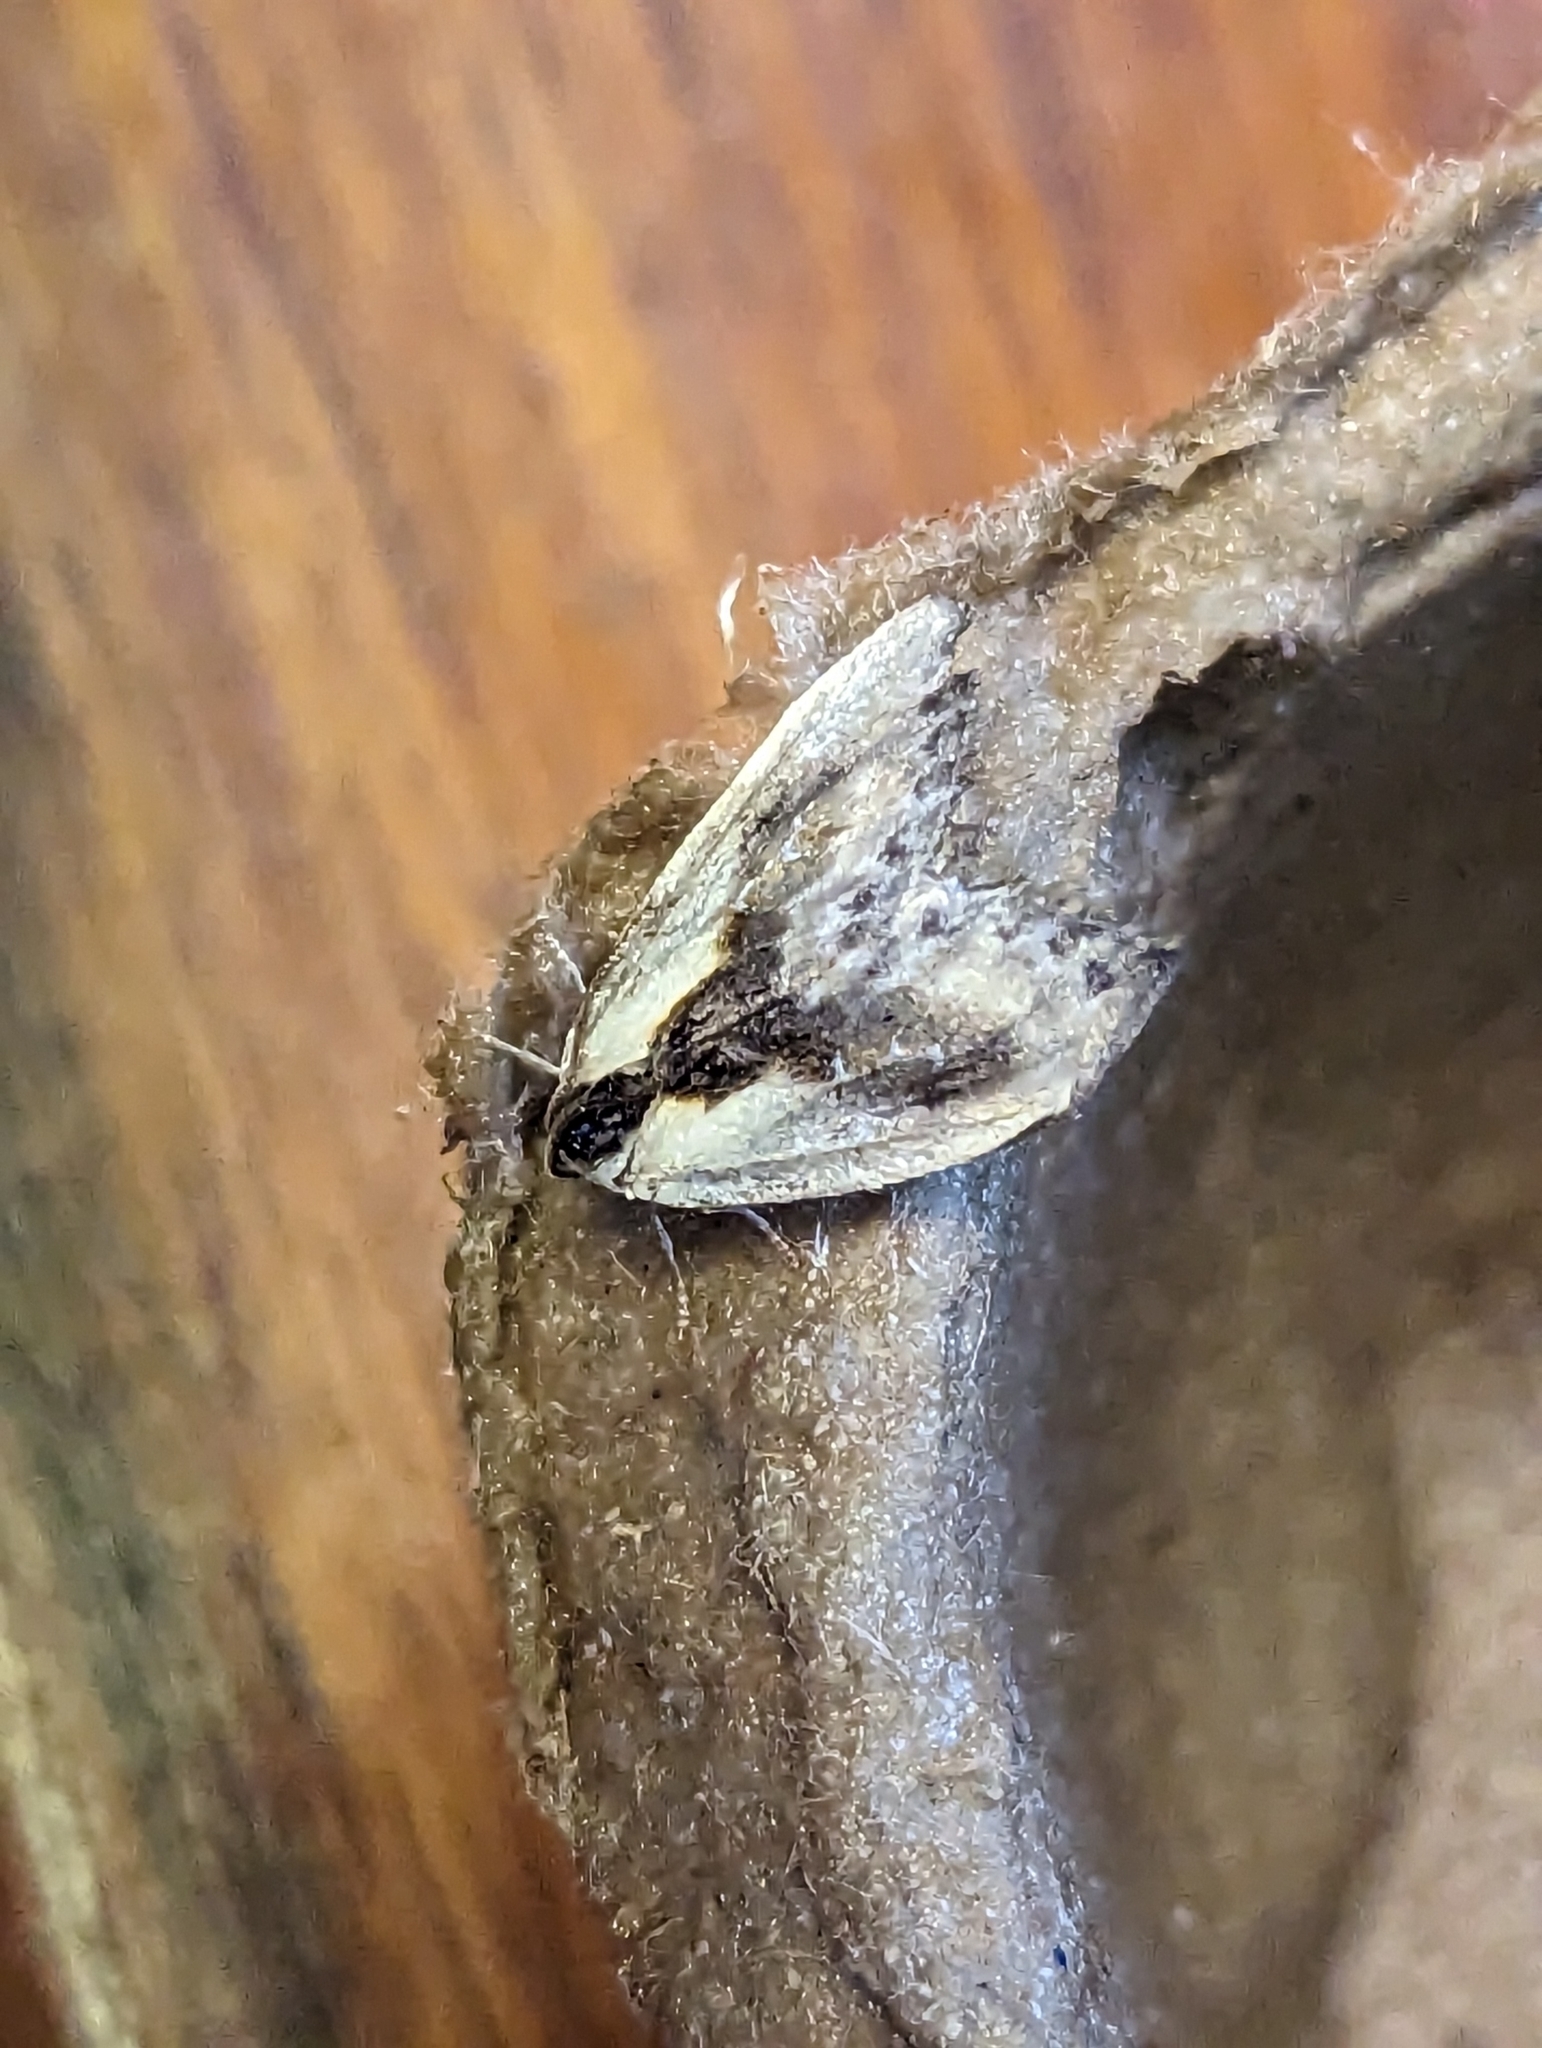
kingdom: Animalia
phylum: Arthropoda
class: Insecta
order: Lepidoptera
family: Drepanidae
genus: Cilix
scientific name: Cilix glaucata
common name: Chinese character
